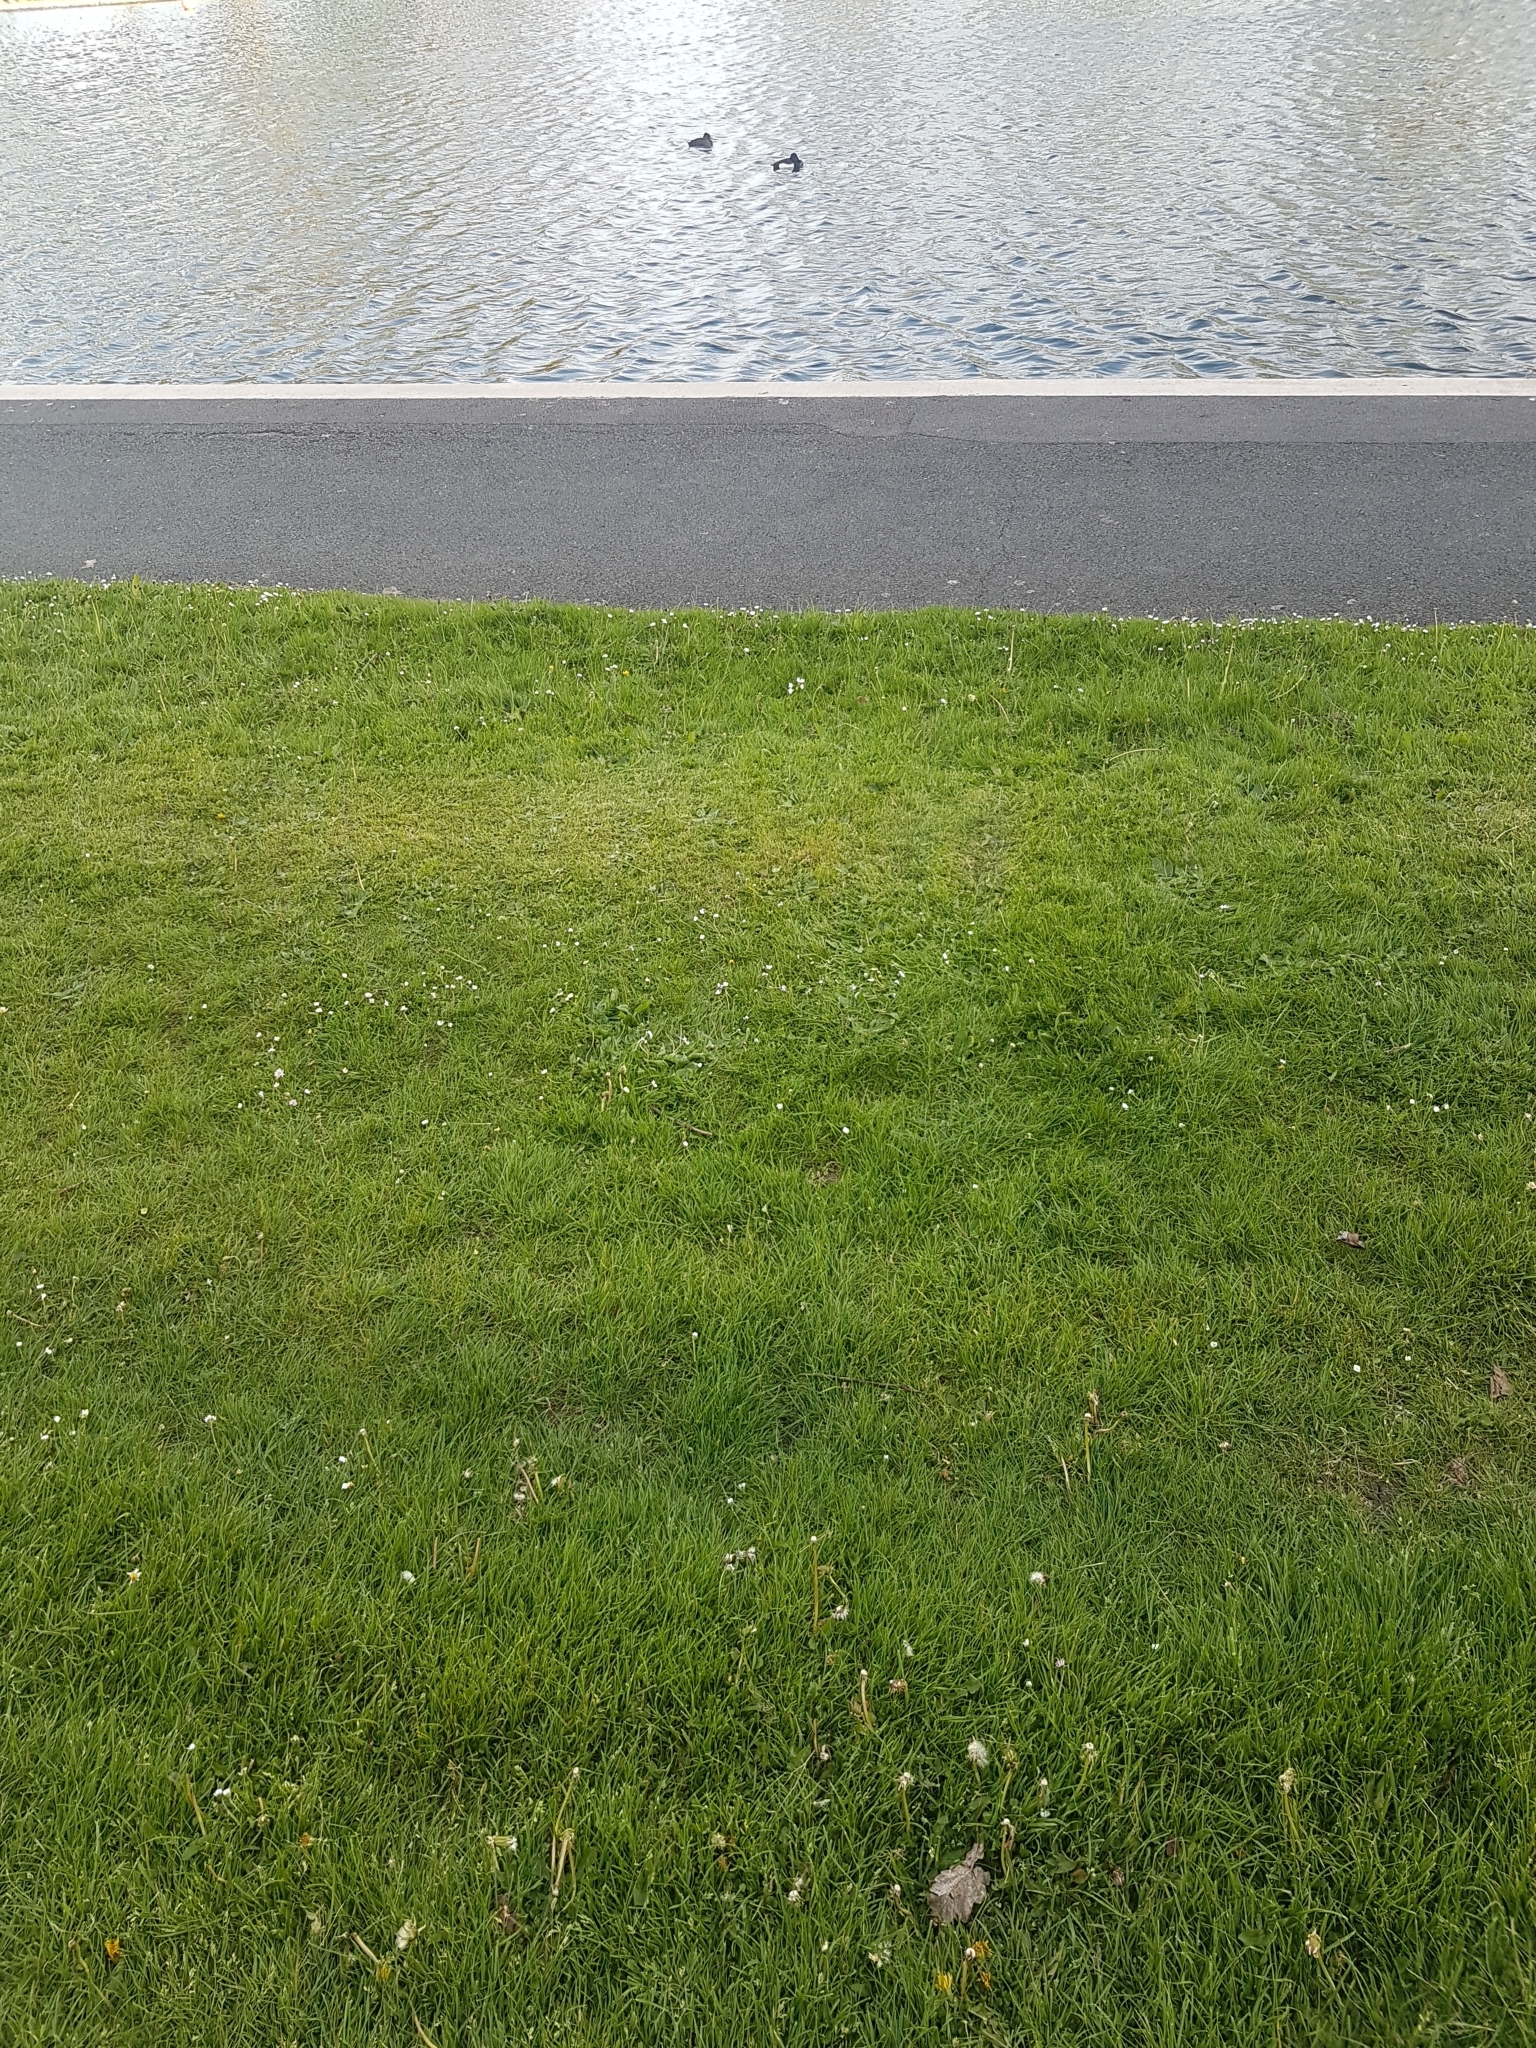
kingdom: Animalia
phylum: Chordata
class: Aves
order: Anseriformes
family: Anatidae
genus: Aythya
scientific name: Aythya fuligula
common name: Tufted duck
